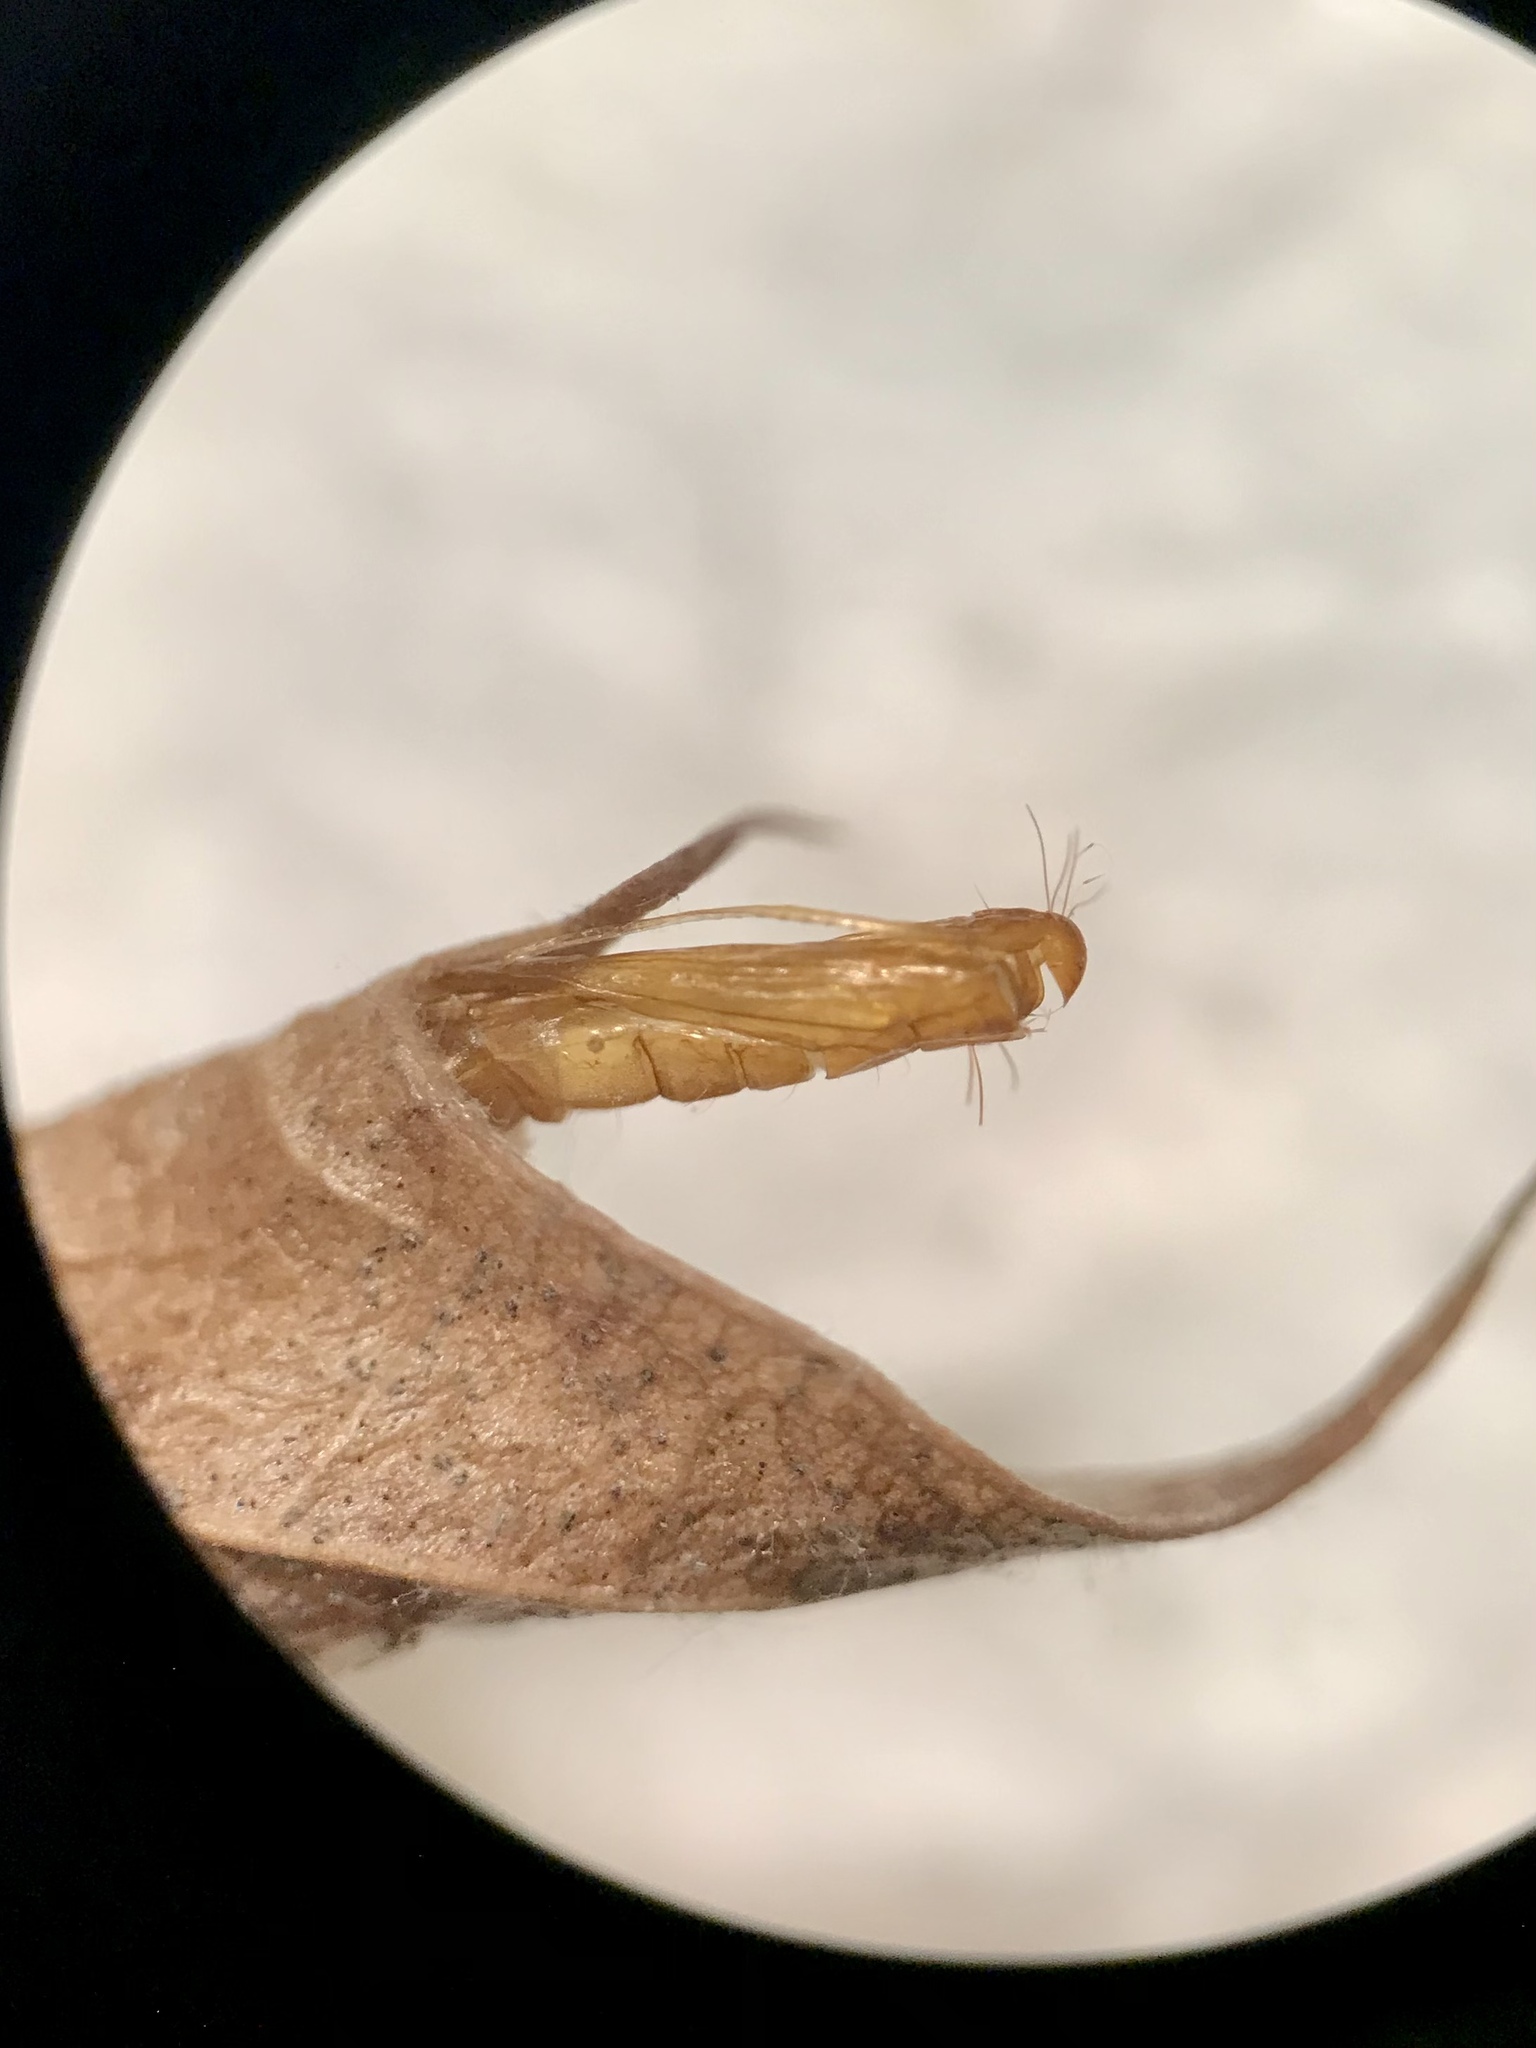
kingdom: Animalia
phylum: Arthropoda
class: Insecta
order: Lepidoptera
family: Tischeriidae
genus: Coptotriche
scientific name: Coptotriche citrinipennella
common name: The golden sweeper
